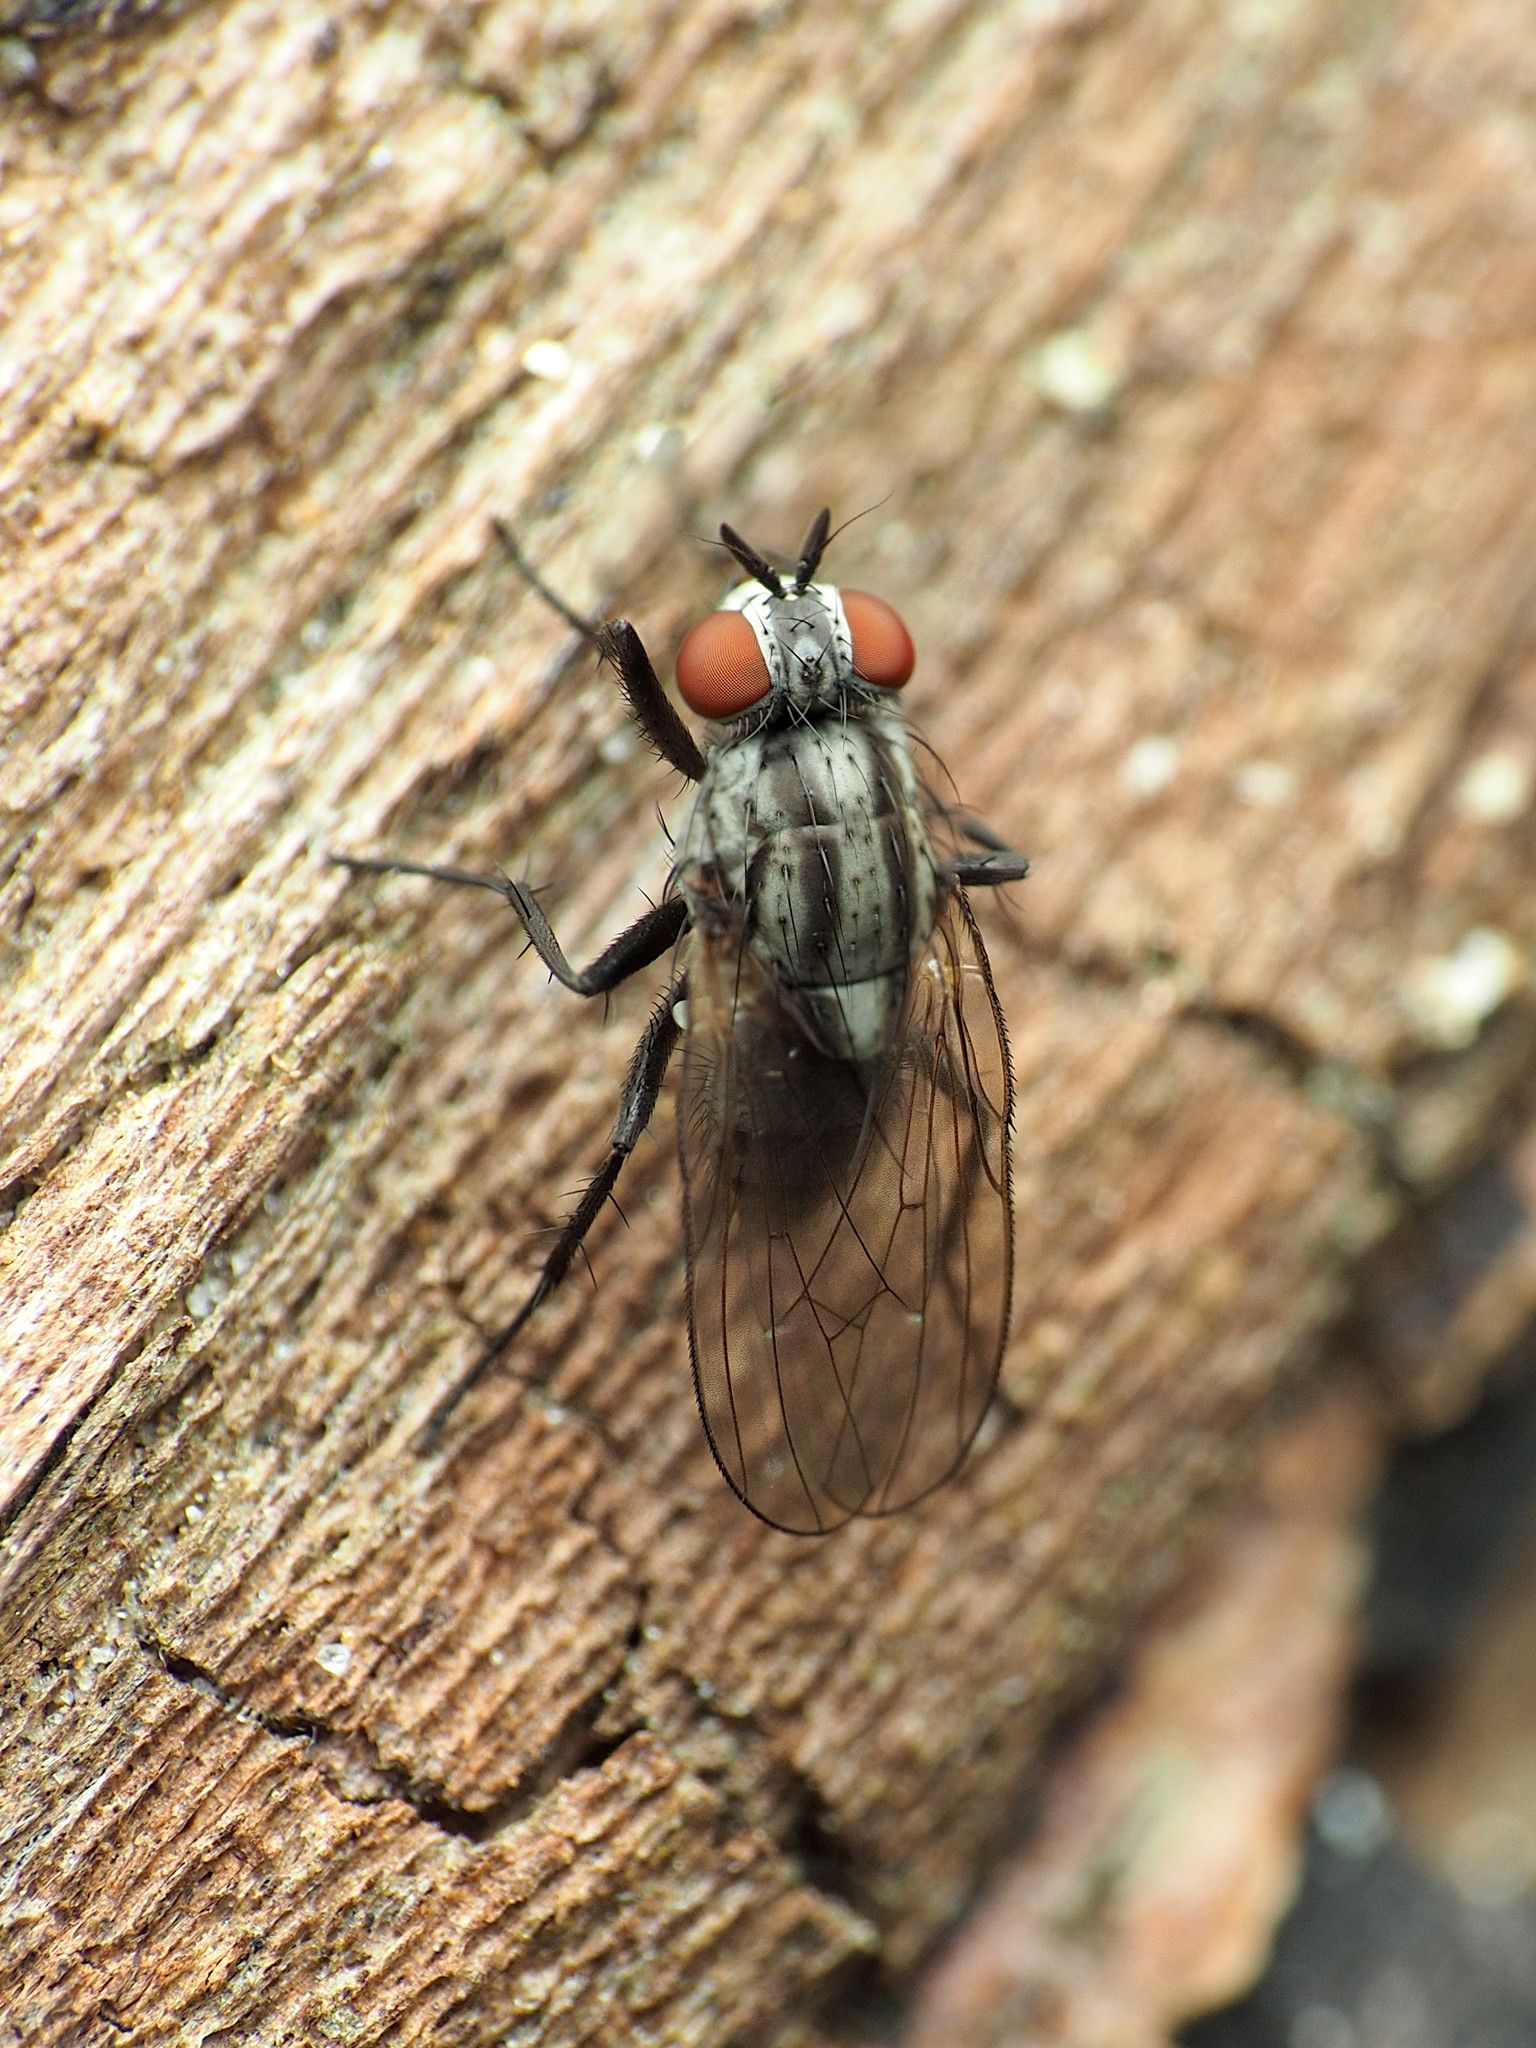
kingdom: Animalia
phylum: Arthropoda
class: Insecta
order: Diptera
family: Anthomyiidae
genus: Anthomyia
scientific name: Anthomyia oculifera
